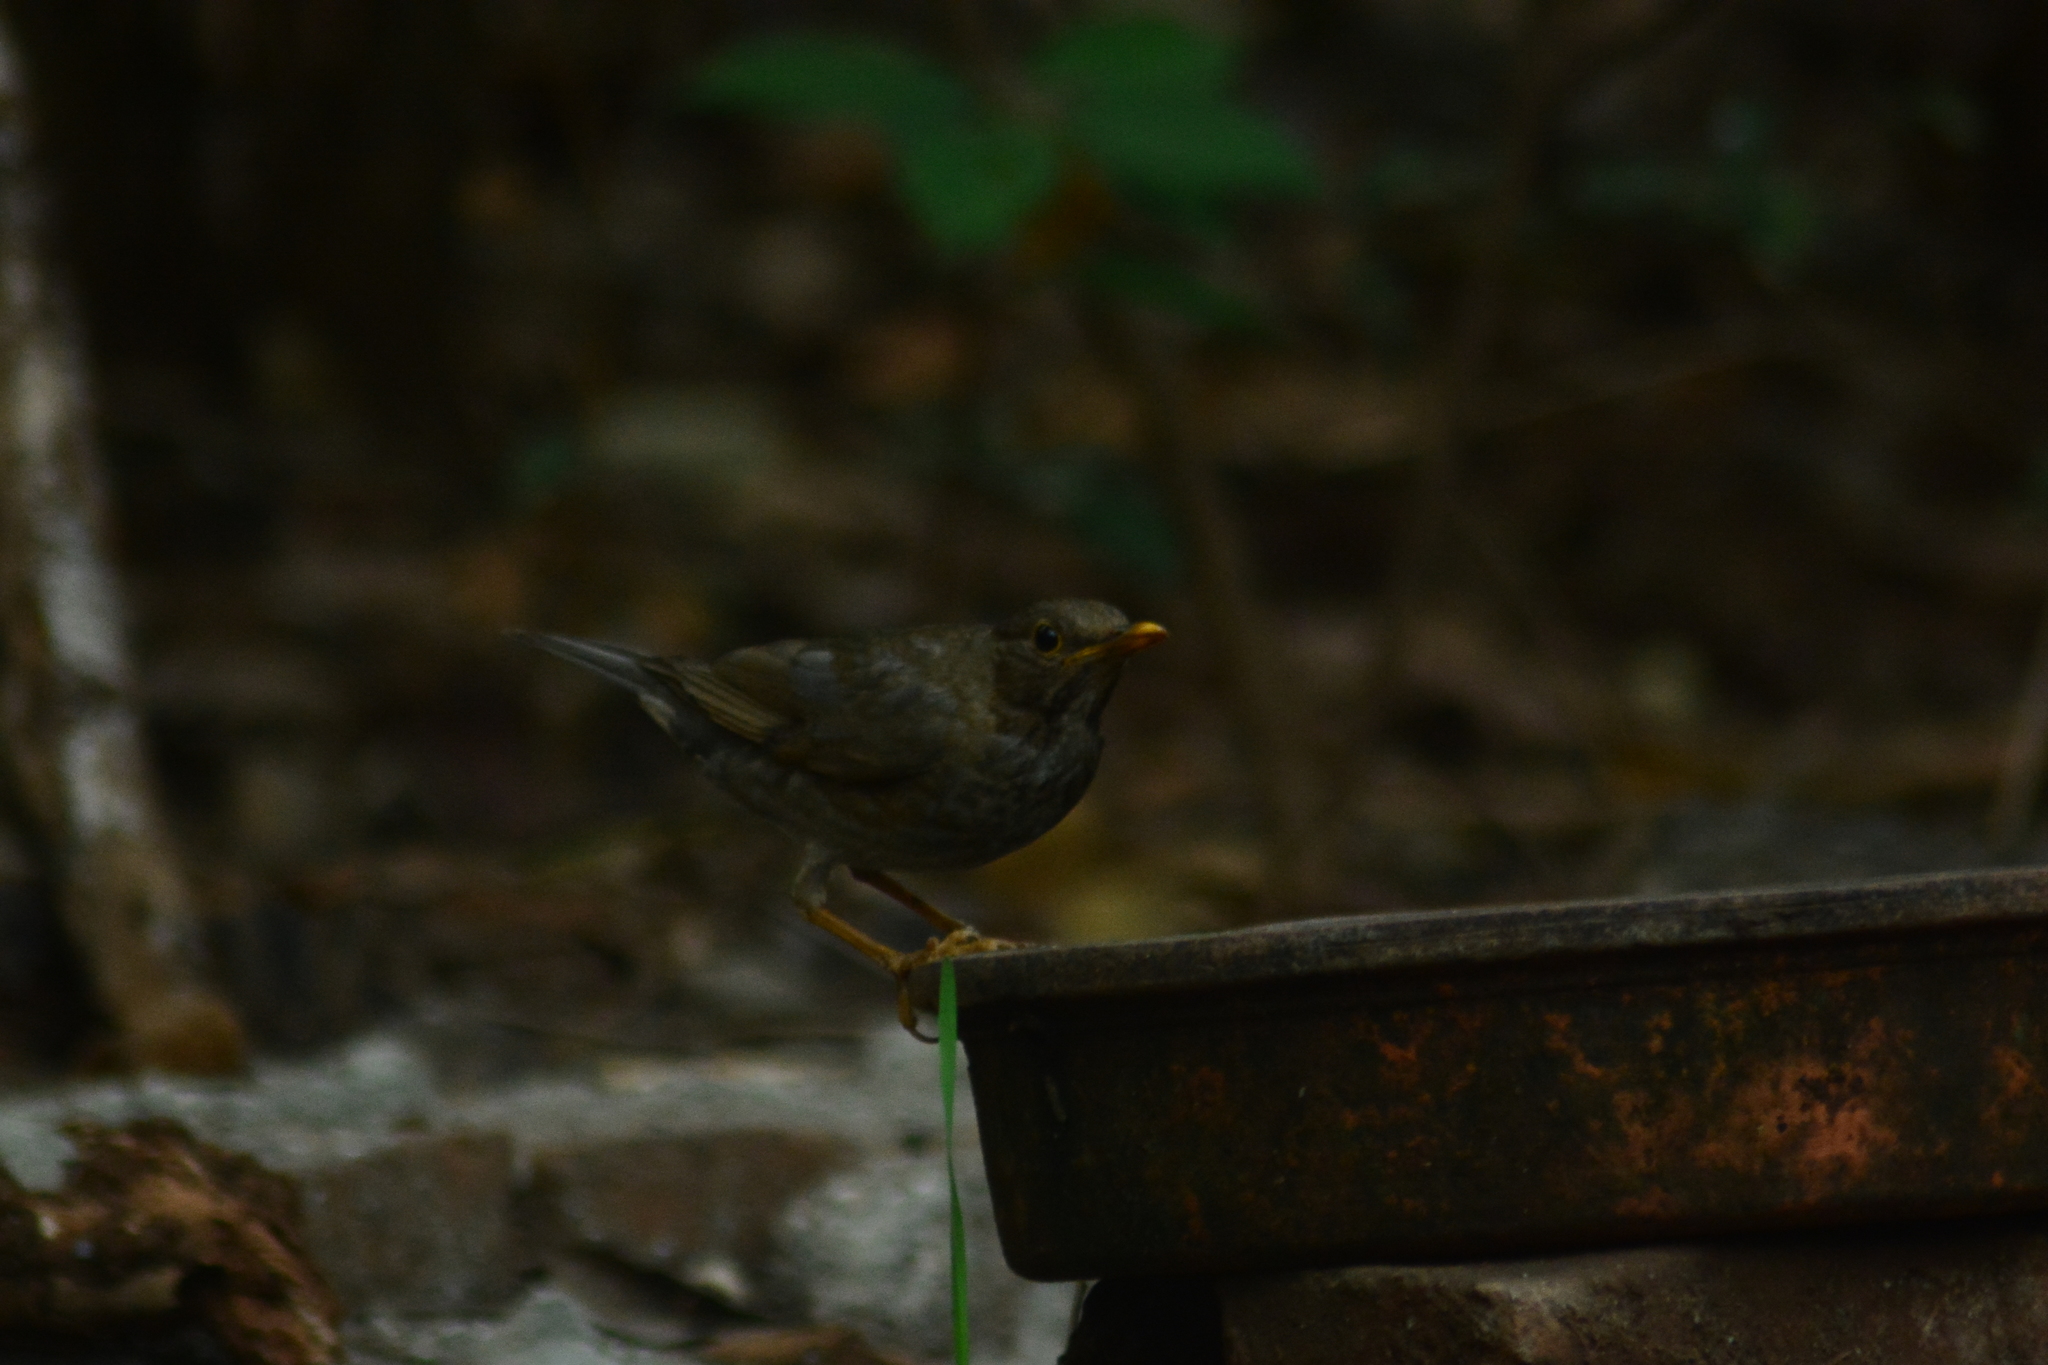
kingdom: Animalia
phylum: Chordata
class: Aves
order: Passeriformes
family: Turdidae
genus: Turdus
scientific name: Turdus unicolor
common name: Tickell's thrush
